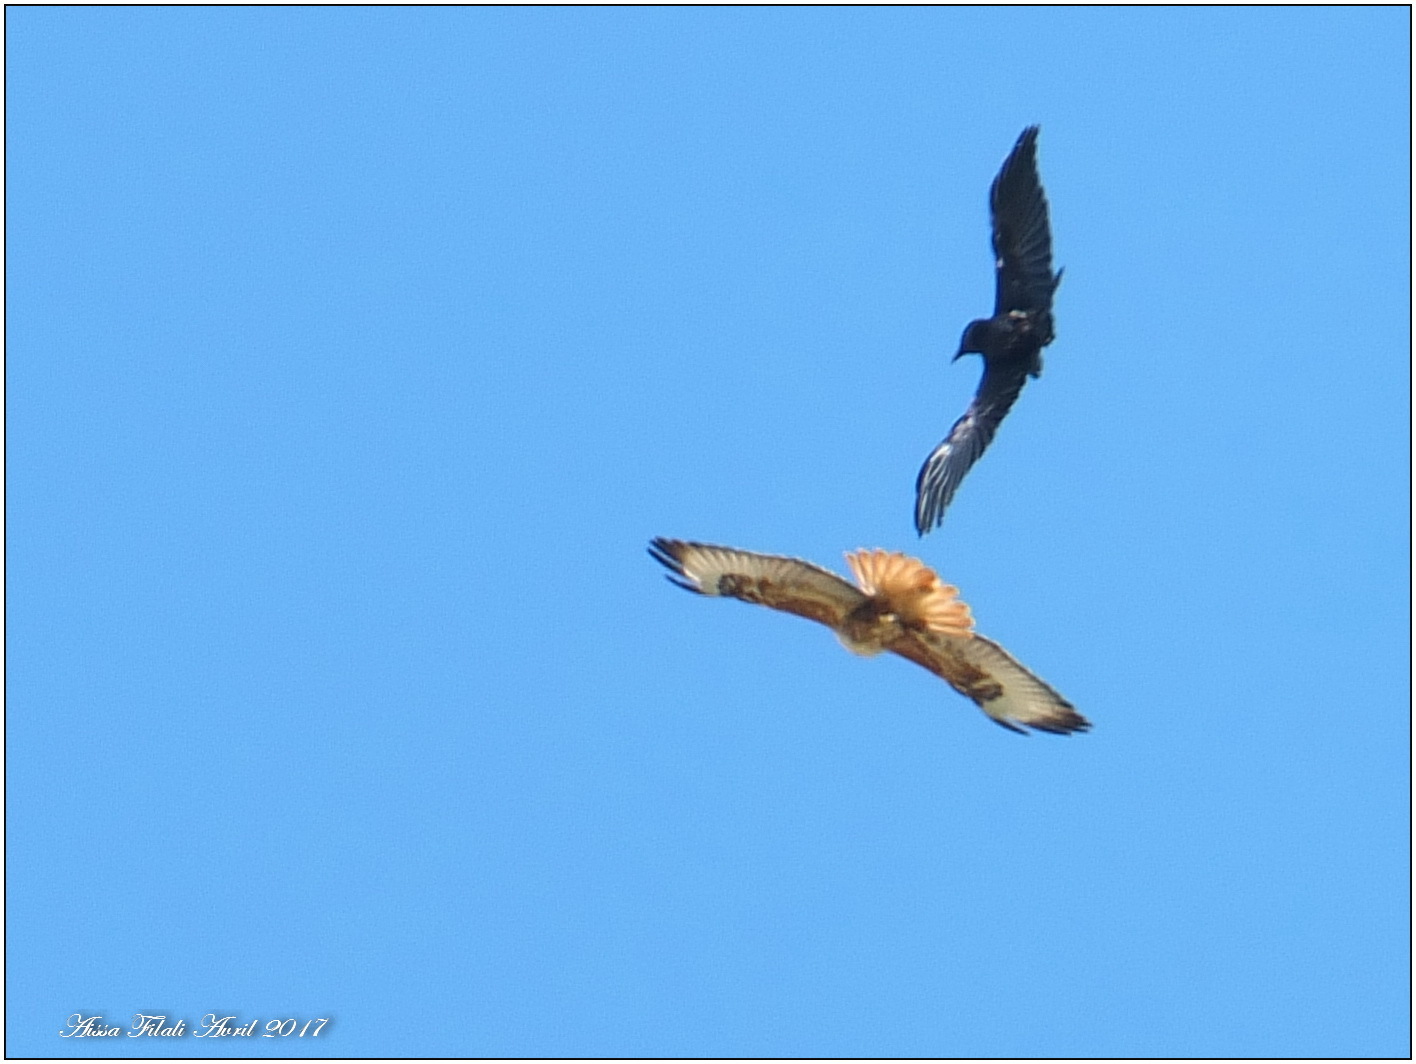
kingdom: Animalia
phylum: Chordata
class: Aves
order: Accipitriformes
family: Accipitridae
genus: Buteo
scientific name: Buteo rufinus
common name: Long-legged buzzard
